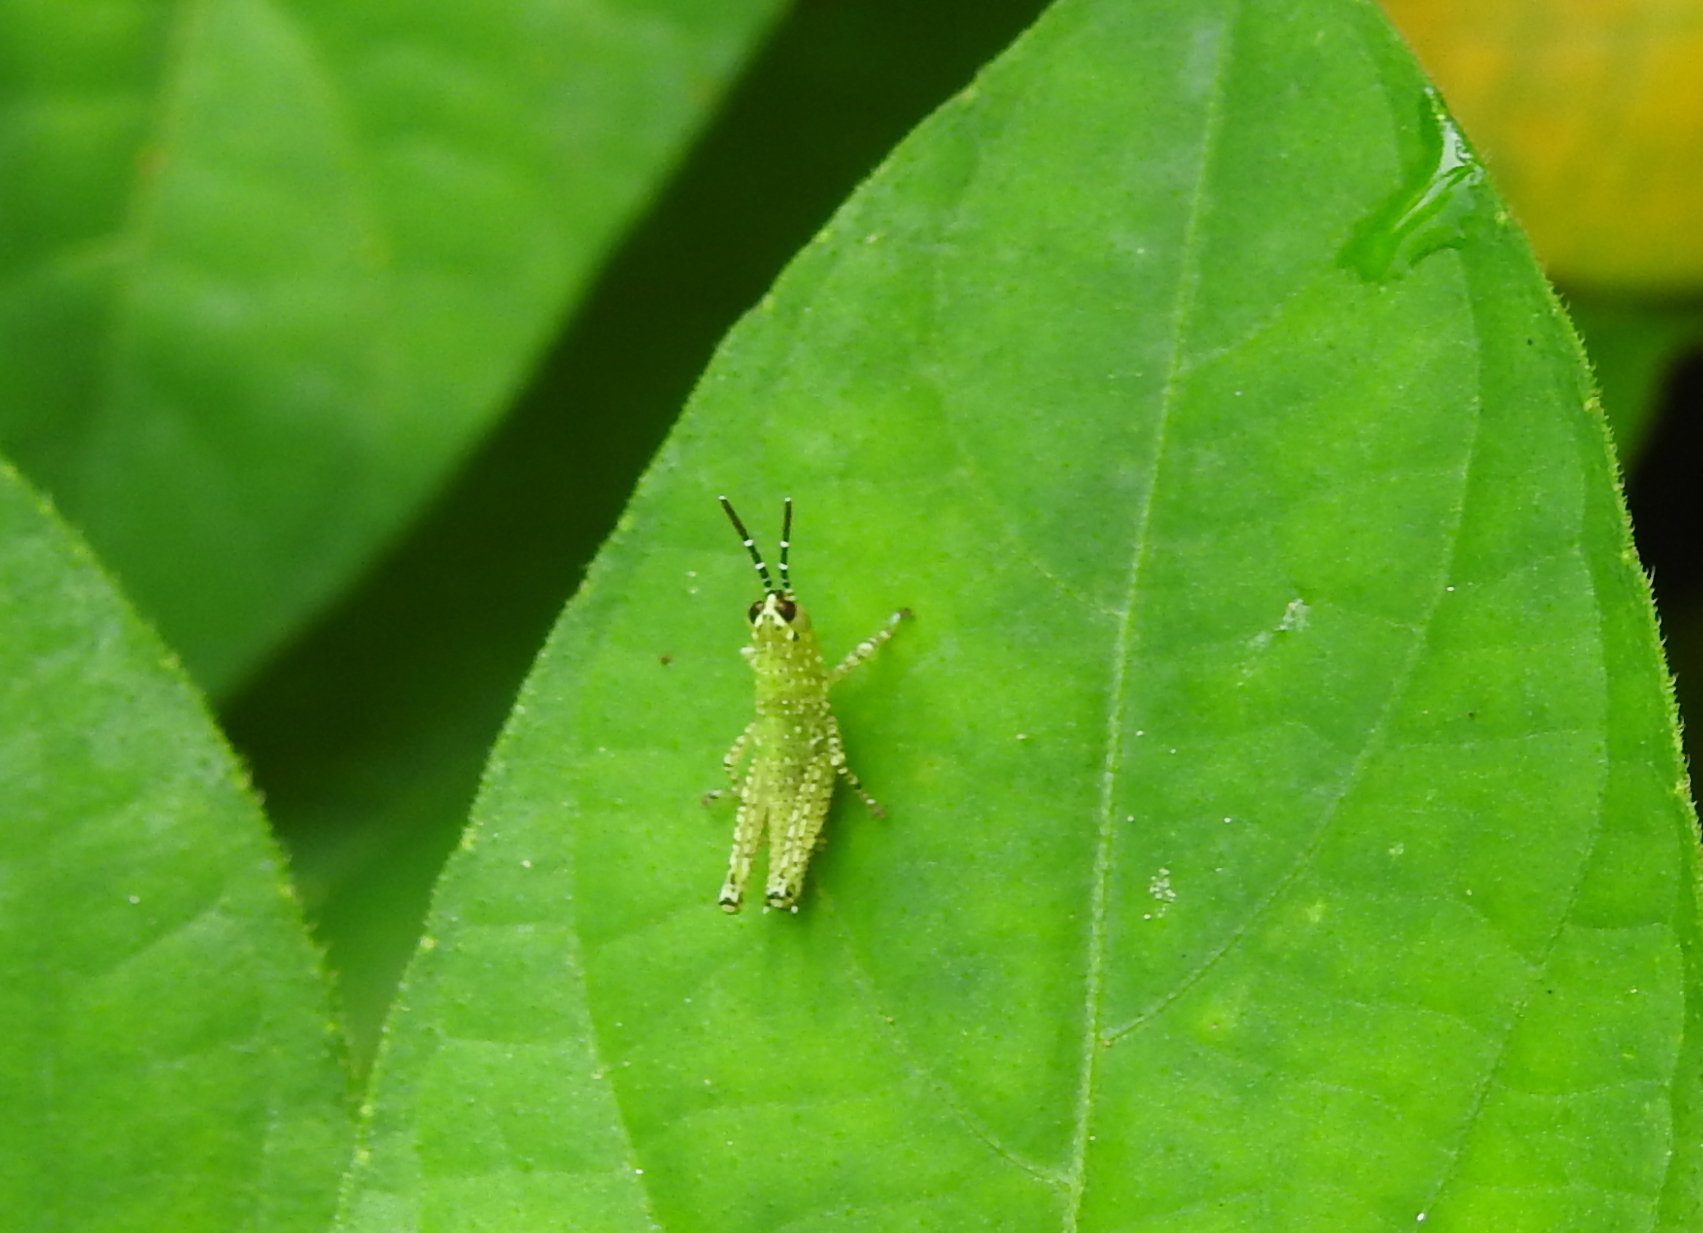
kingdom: Animalia
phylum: Arthropoda
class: Insecta
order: Orthoptera
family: Acrididae
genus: Xenocatantops
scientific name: Xenocatantops humile
